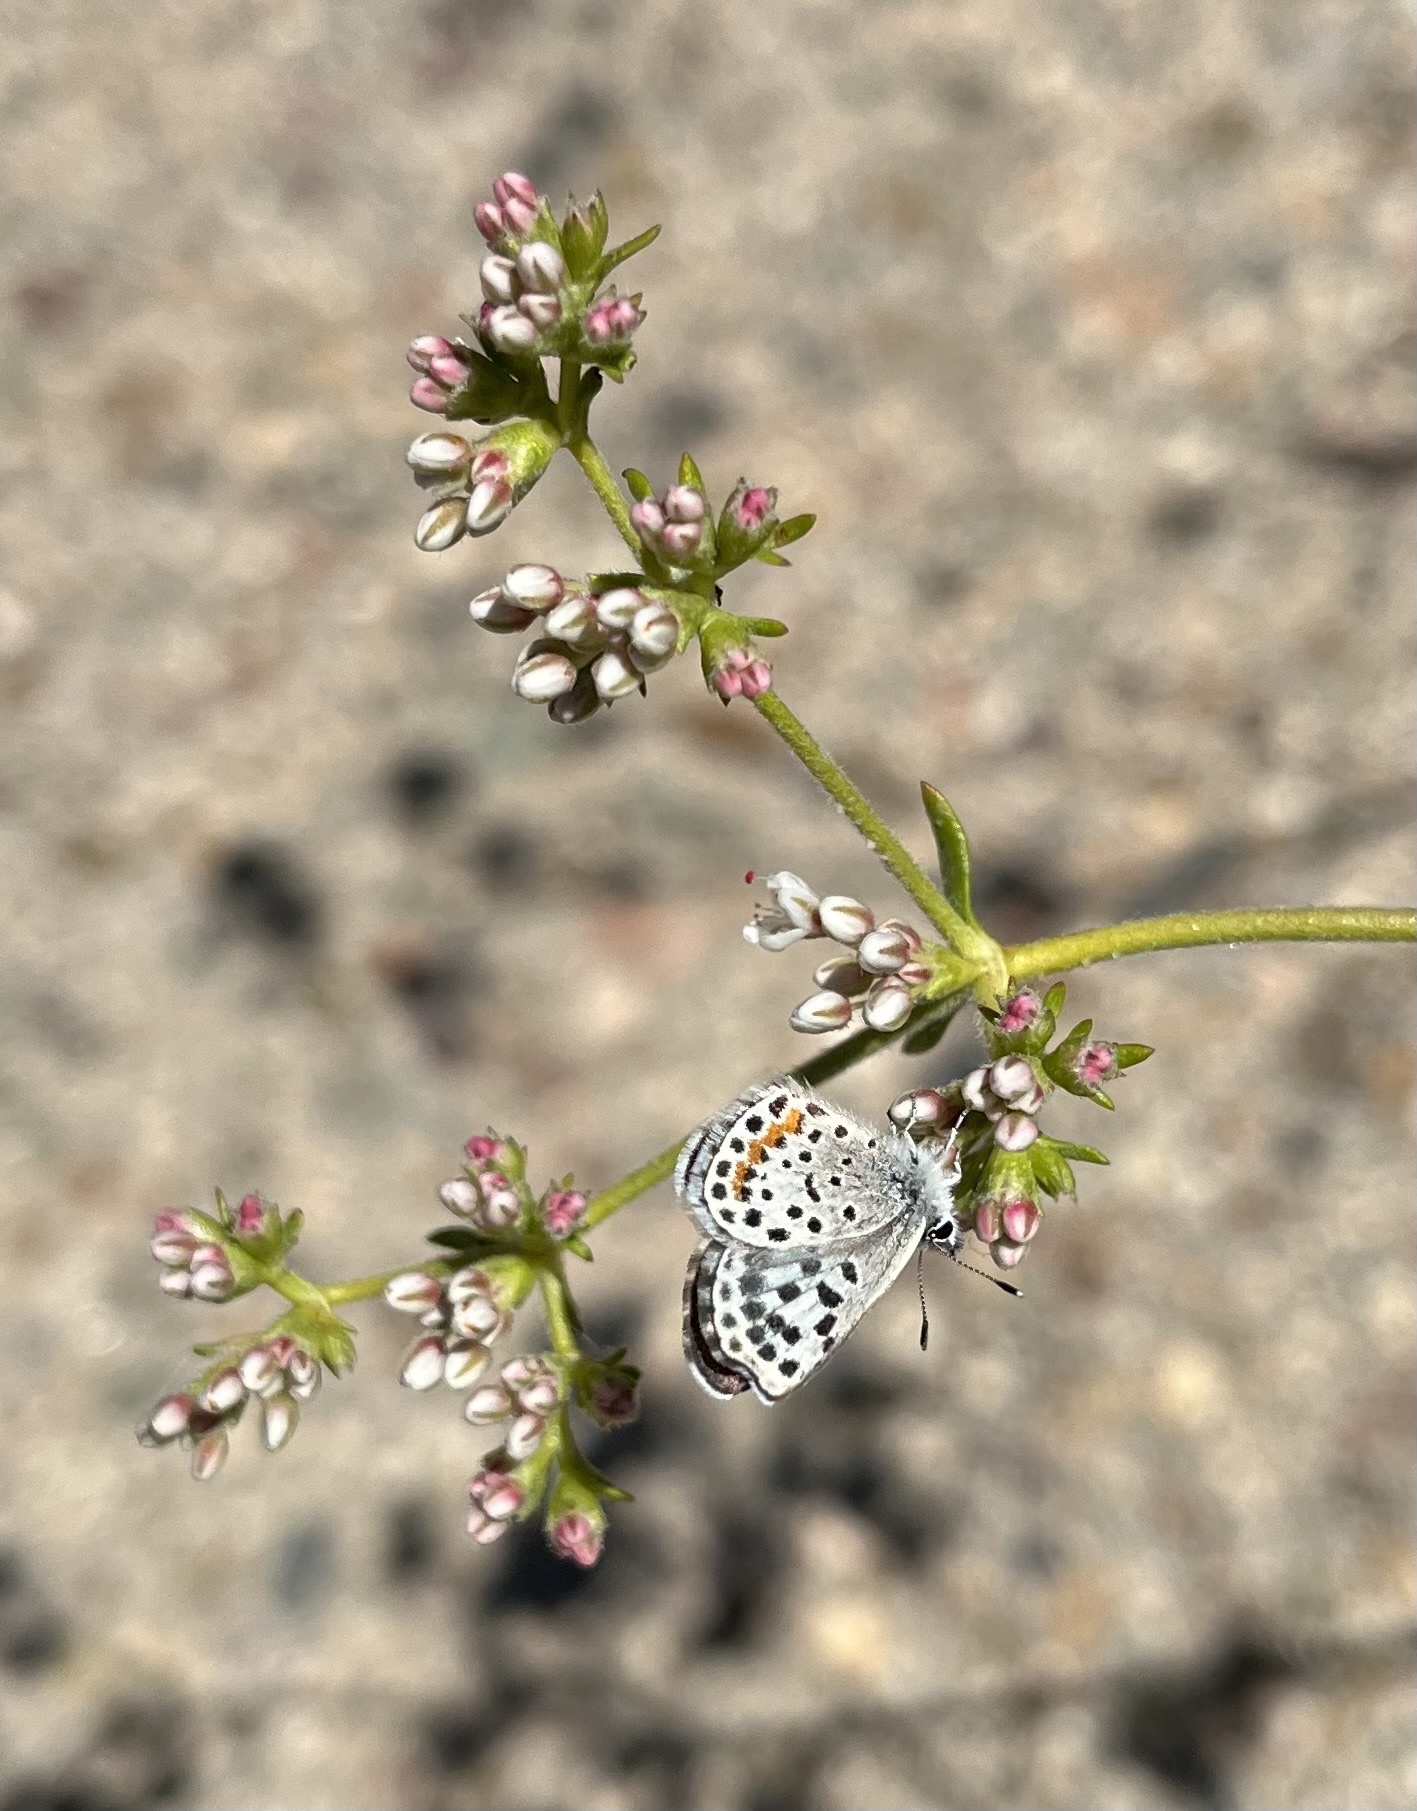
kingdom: Animalia
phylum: Arthropoda
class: Insecta
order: Lepidoptera
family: Lycaenidae
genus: Philotes
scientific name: Philotes bernardino
